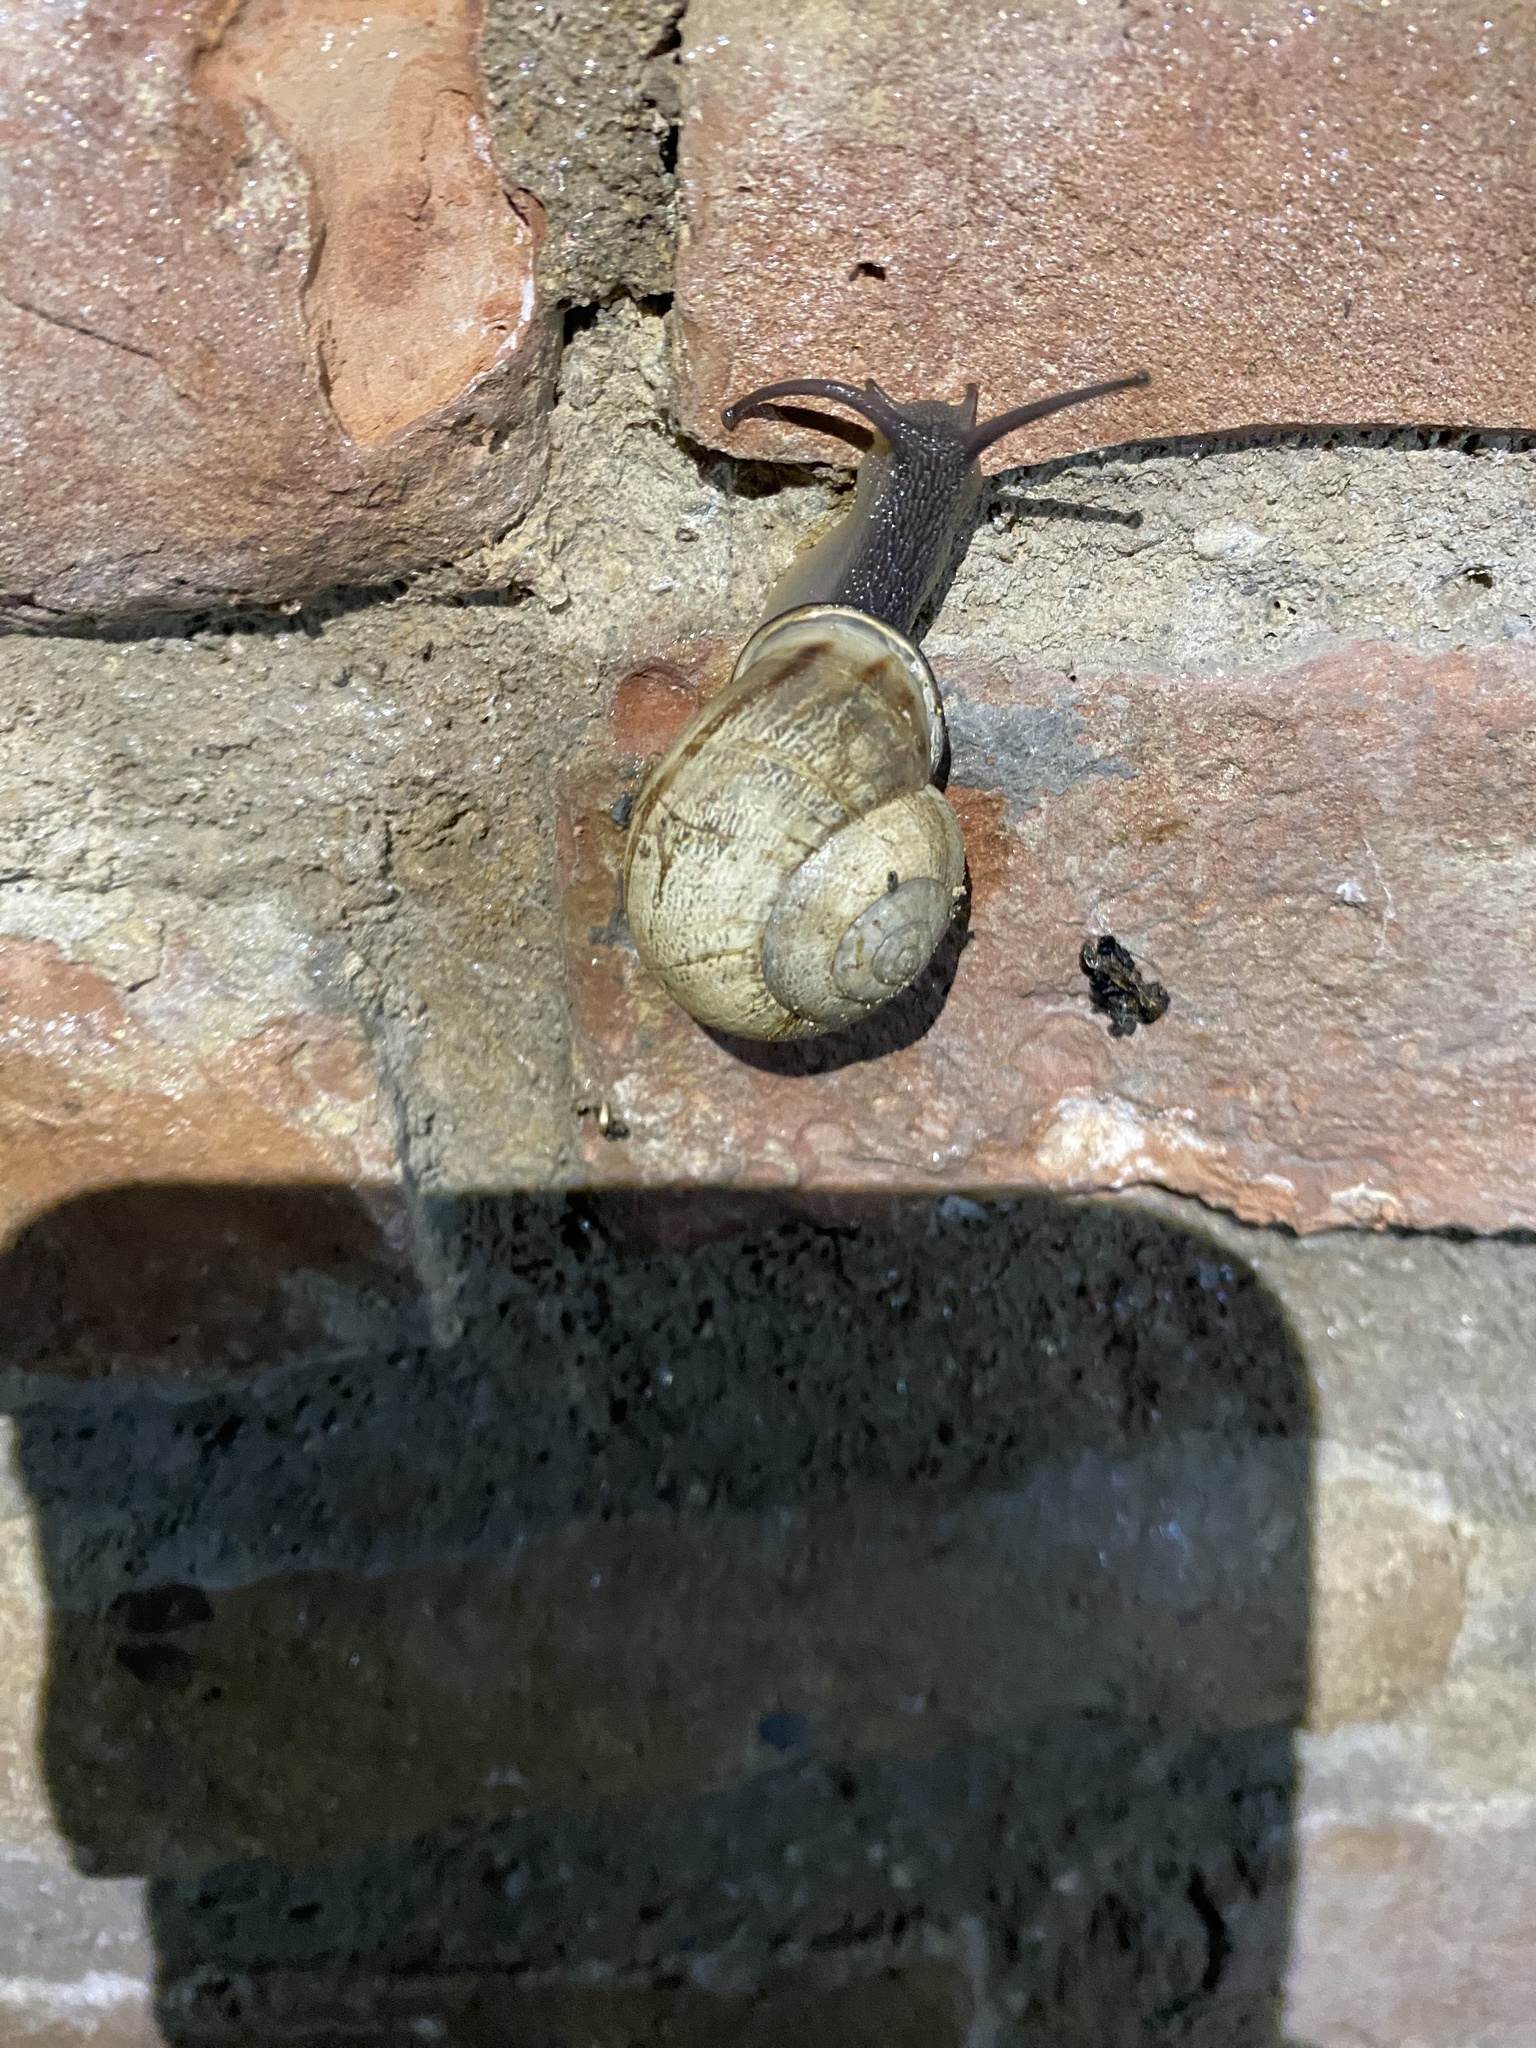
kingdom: Animalia
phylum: Mollusca
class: Gastropoda
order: Stylommatophora
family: Helicidae
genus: Eobania
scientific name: Eobania vermiculata
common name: Chocolateband snail
